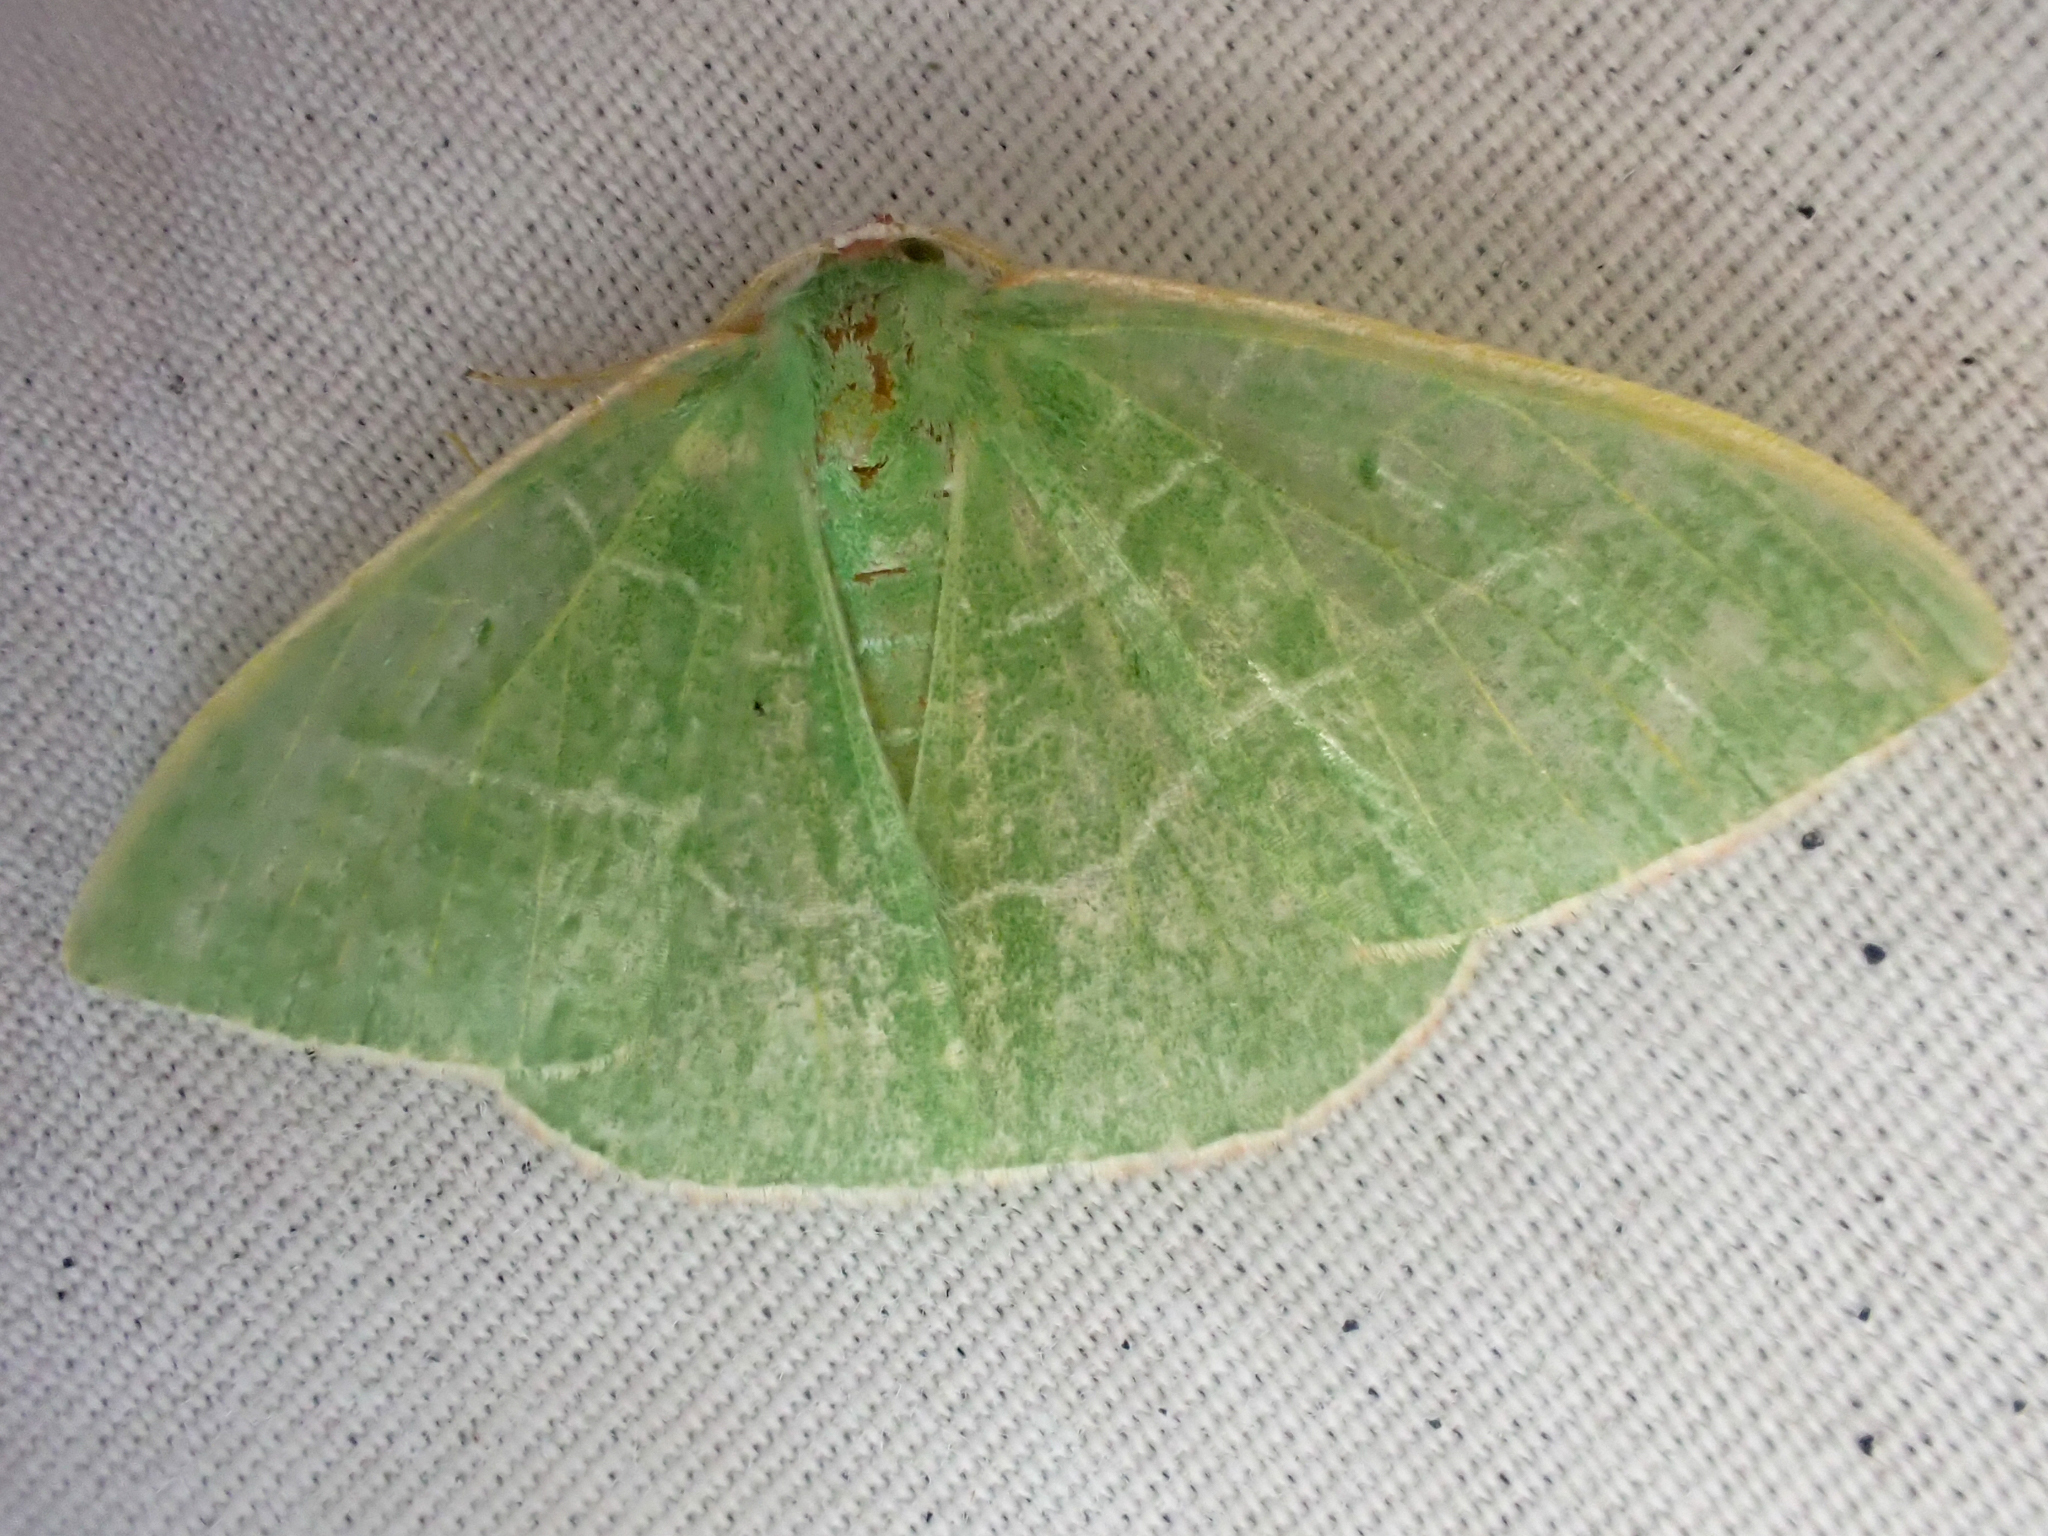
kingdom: Animalia
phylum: Arthropoda
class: Insecta
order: Lepidoptera
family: Geometridae
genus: Nemoria
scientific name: Nemoria leptalea
